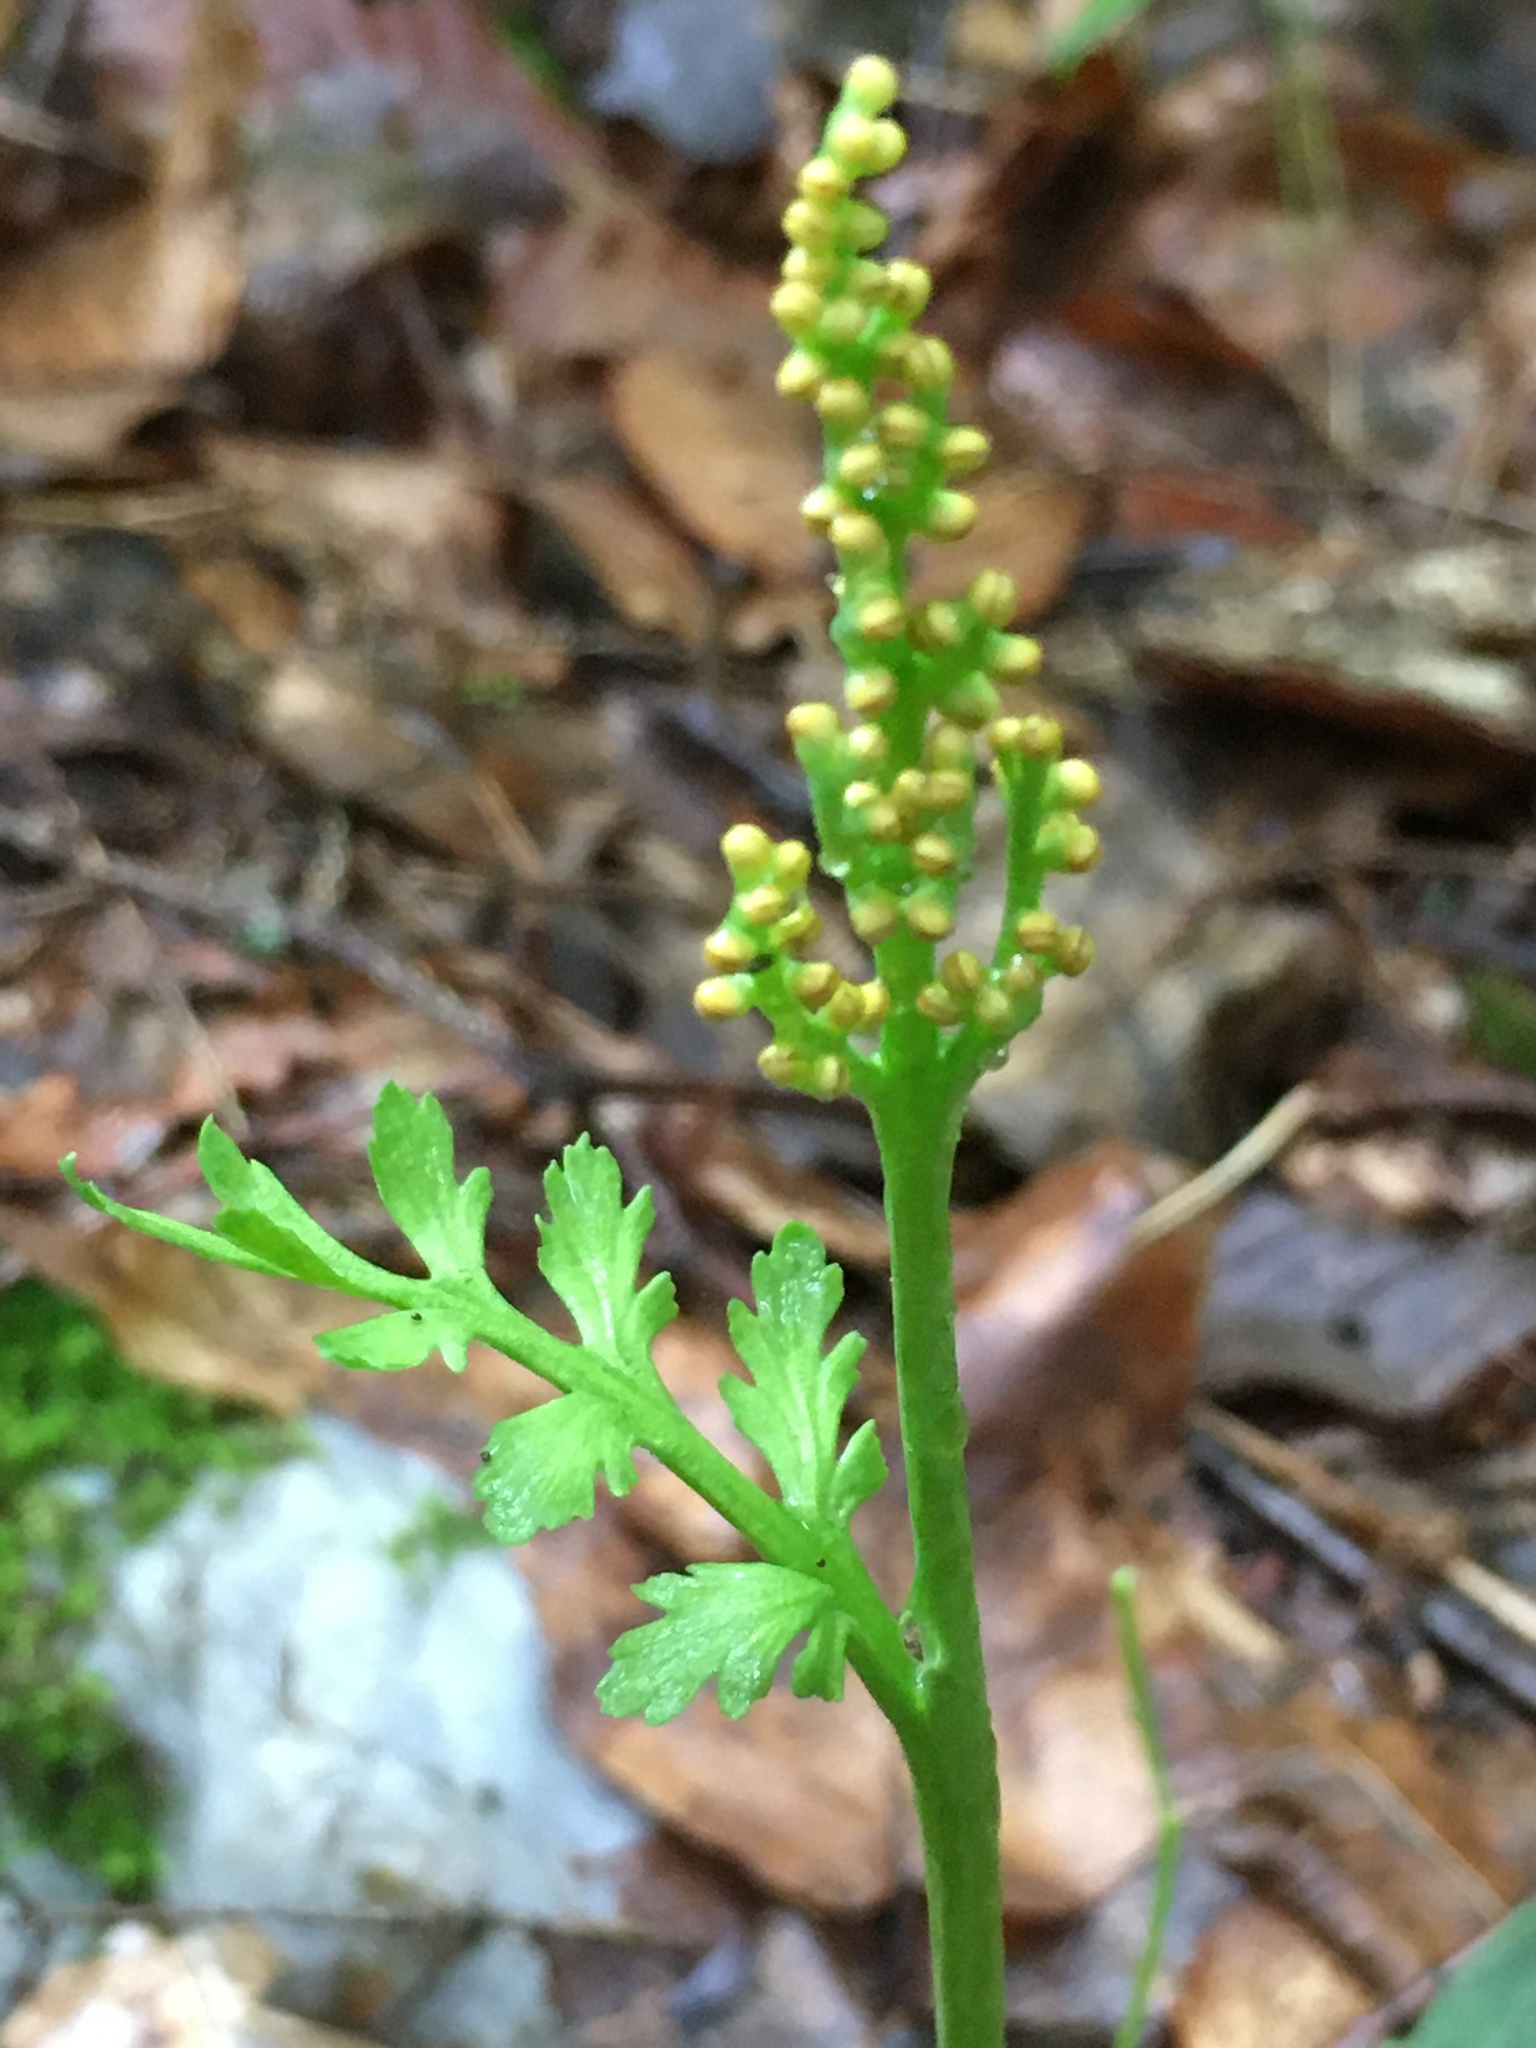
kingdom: Plantae
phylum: Tracheophyta
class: Polypodiopsida
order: Ophioglossales
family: Ophioglossaceae
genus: Botrychium
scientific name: Botrychium matricariifolium
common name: Branched moonwort
